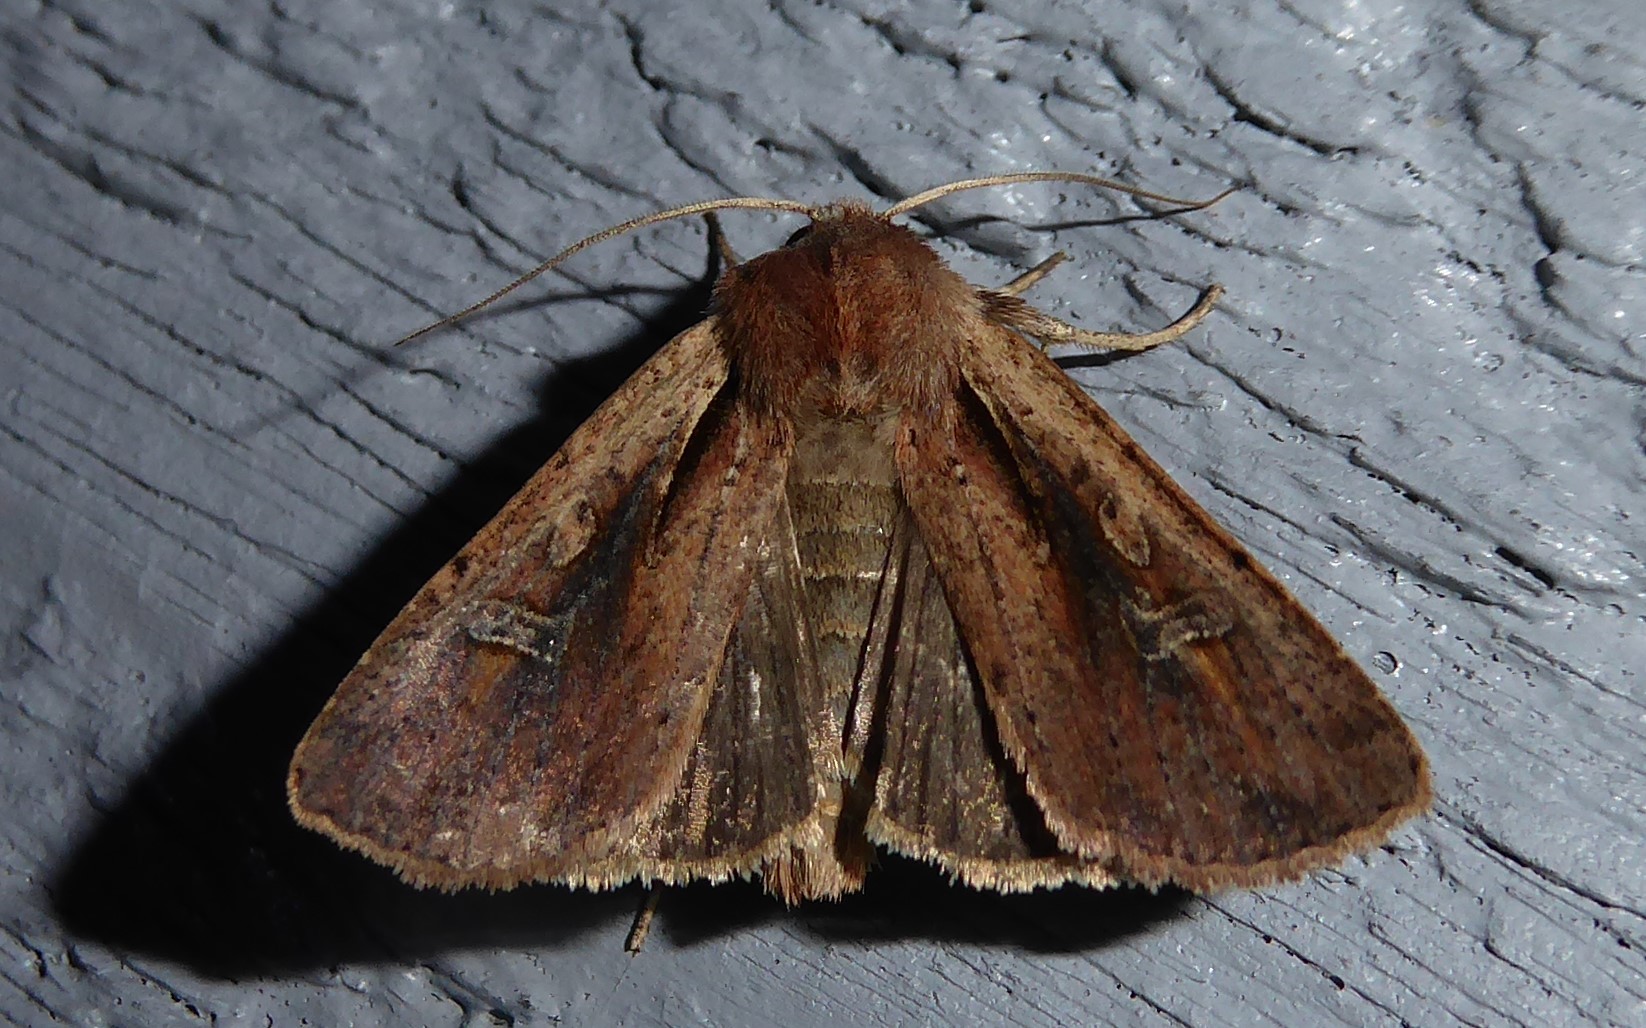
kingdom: Animalia
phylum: Arthropoda
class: Insecta
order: Lepidoptera
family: Noctuidae
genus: Ichneutica
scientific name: Ichneutica atristriga
